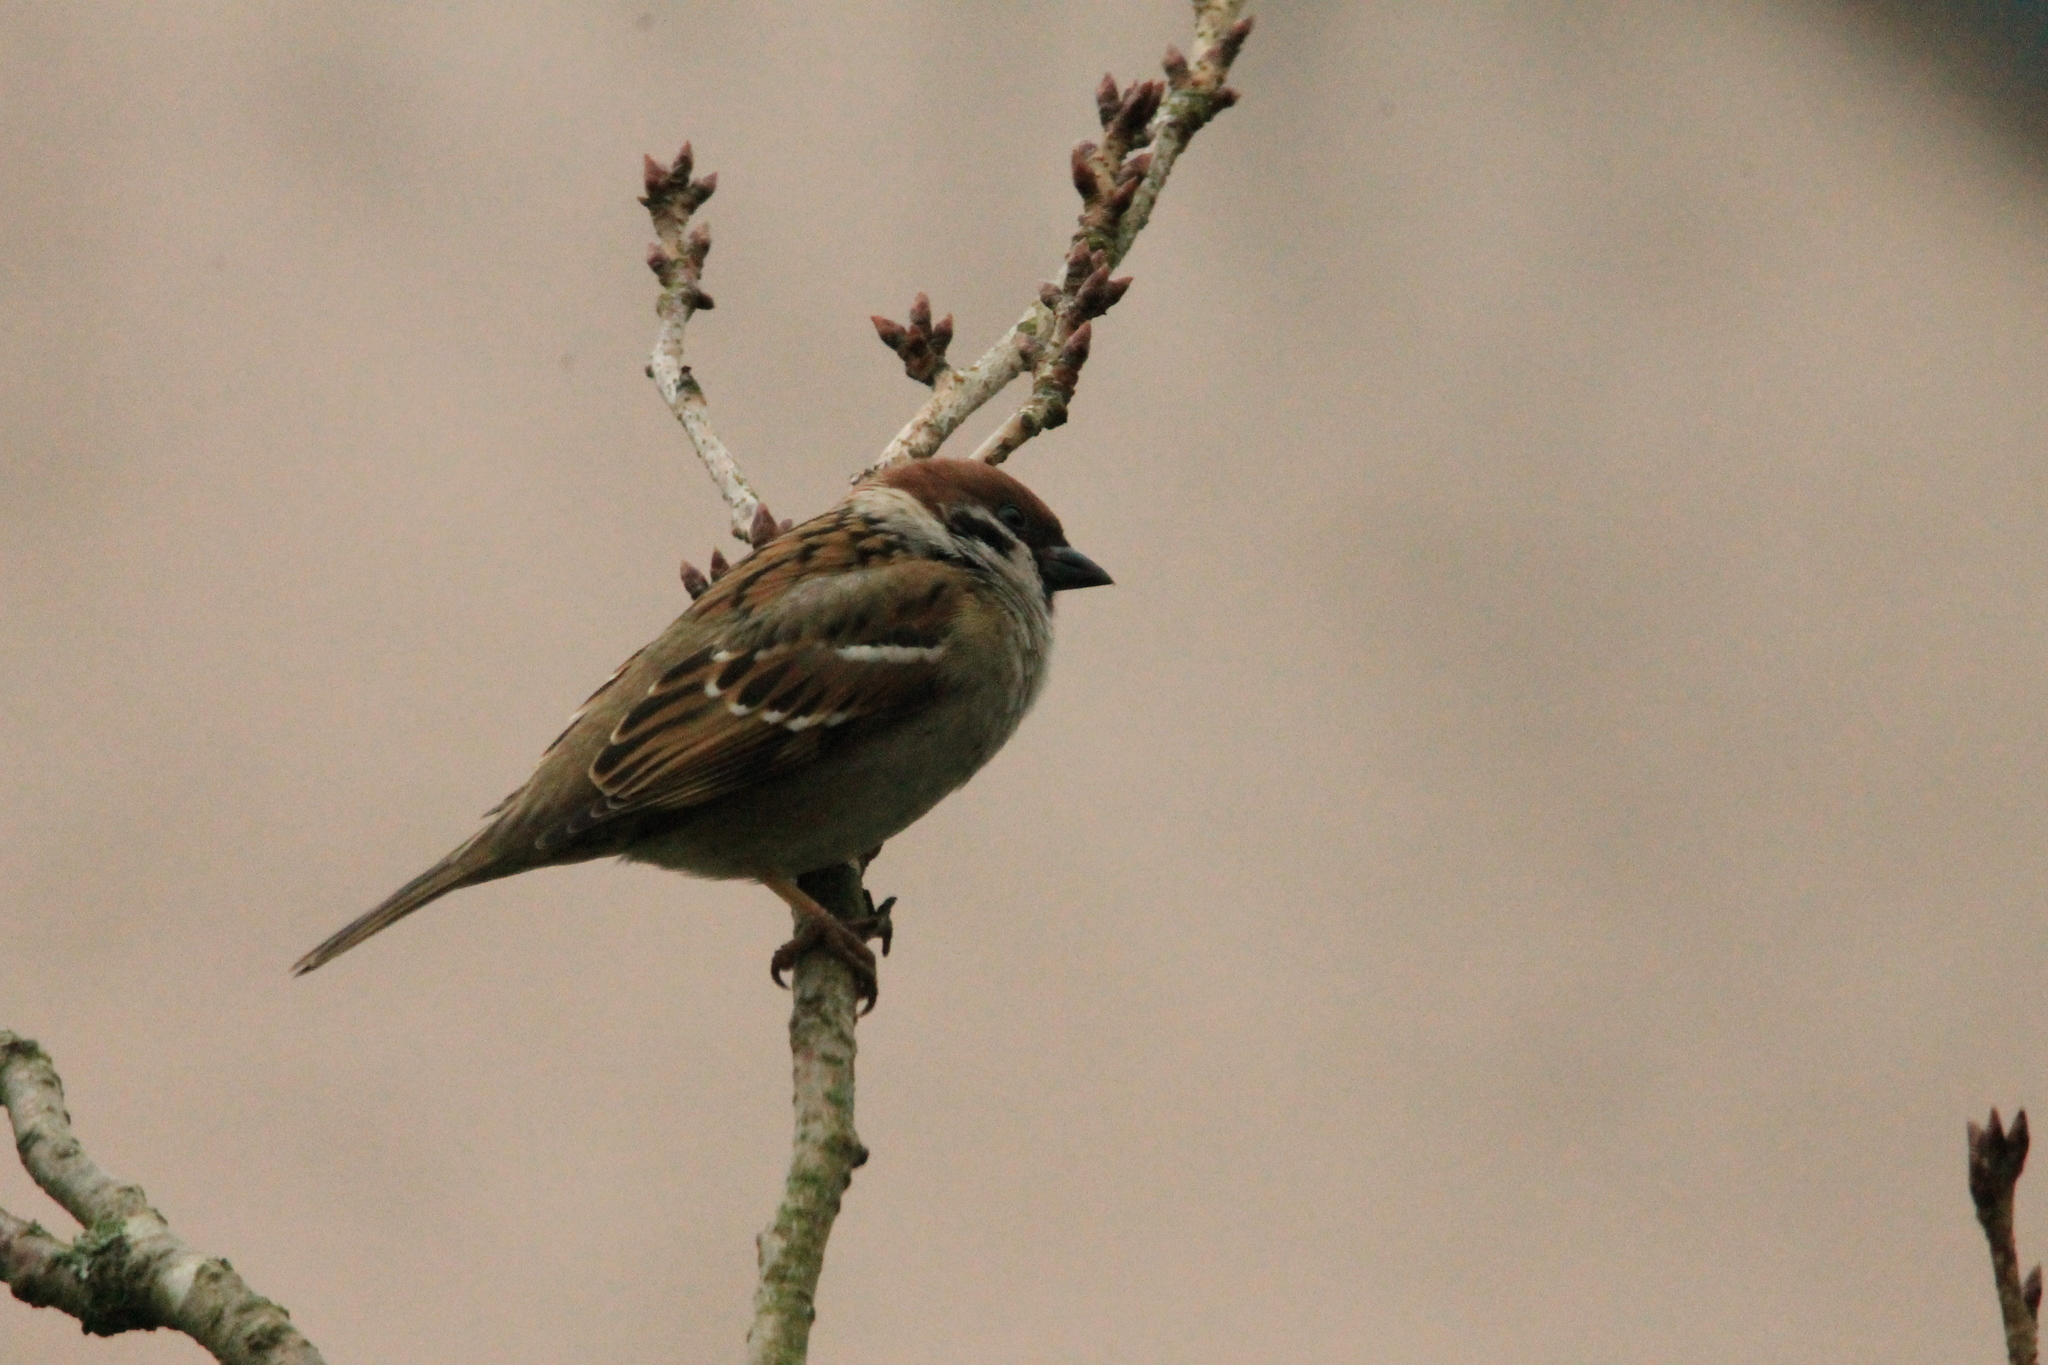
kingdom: Animalia
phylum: Chordata
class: Aves
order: Passeriformes
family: Passeridae
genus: Passer
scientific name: Passer montanus
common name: Eurasian tree sparrow
